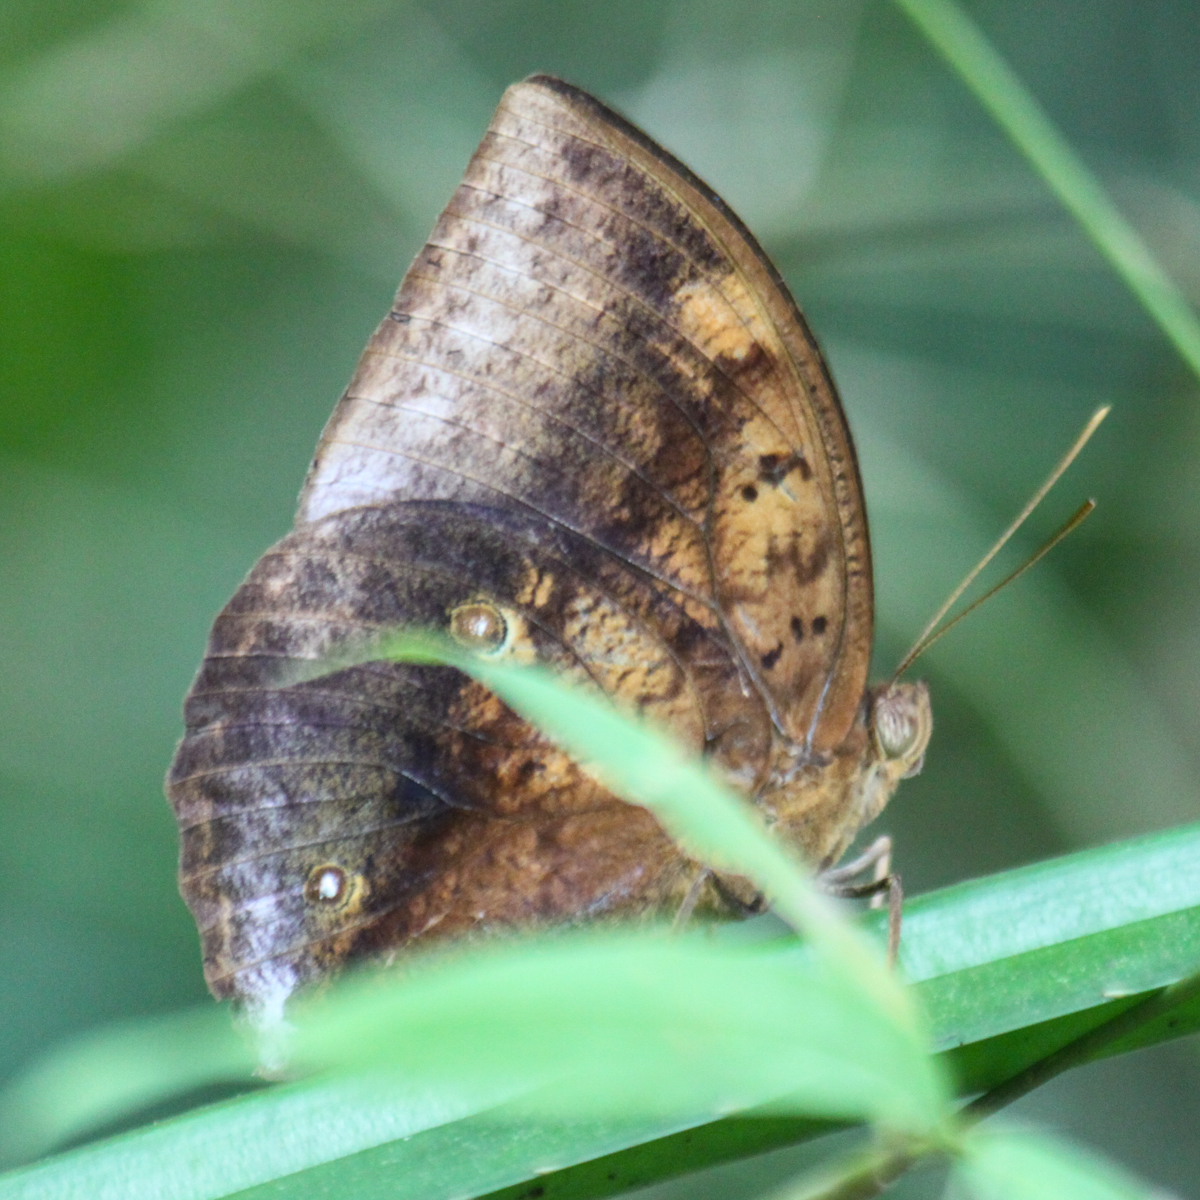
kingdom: Animalia
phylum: Arthropoda
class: Insecta
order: Lepidoptera
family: Nymphalidae
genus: Discophora
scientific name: Discophora timora
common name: Great duffer
